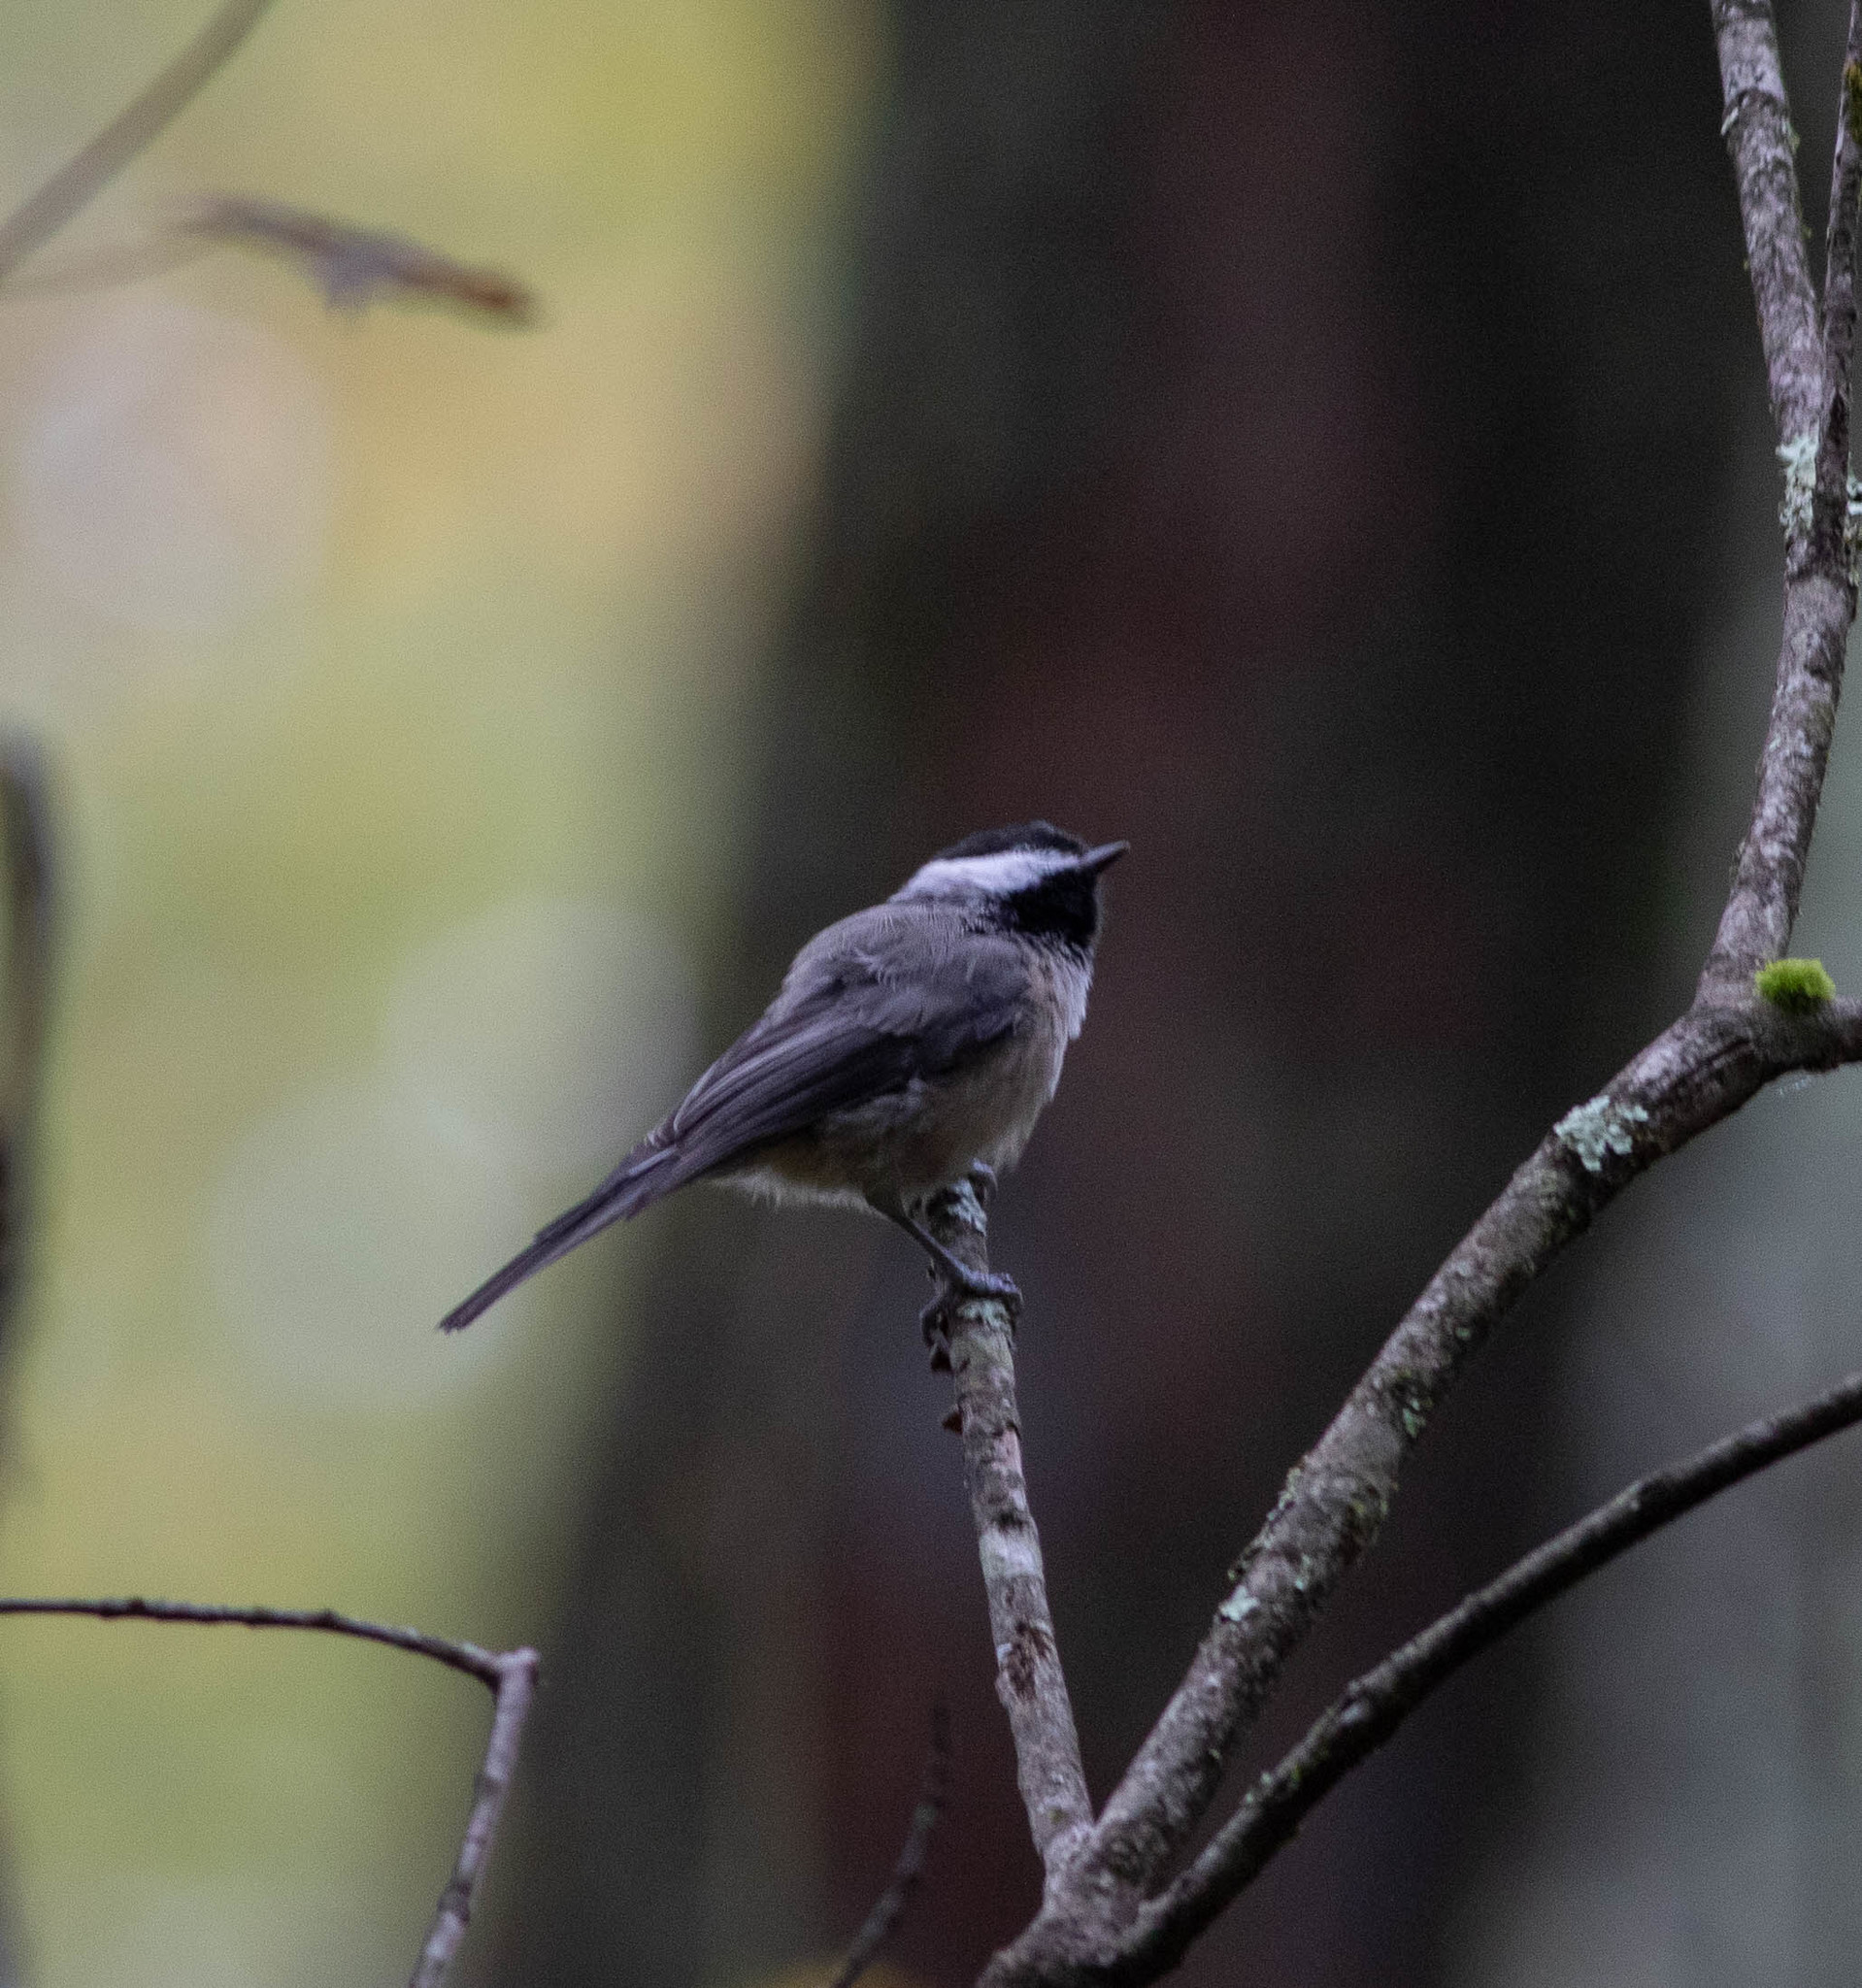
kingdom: Animalia
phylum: Chordata
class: Aves
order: Passeriformes
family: Paridae
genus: Poecile
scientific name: Poecile carolinensis
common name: Carolina chickadee
